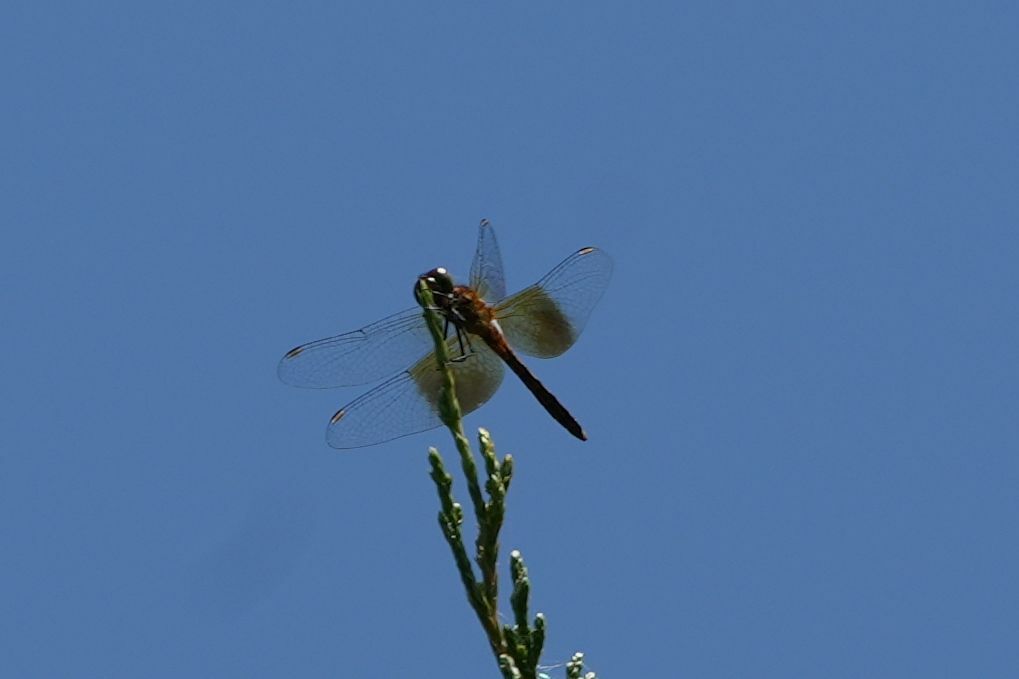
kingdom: Animalia
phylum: Arthropoda
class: Insecta
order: Odonata
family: Libellulidae
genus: Sympetrum
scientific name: Sympetrum semicinctum
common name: Band-winged meadowhawk
